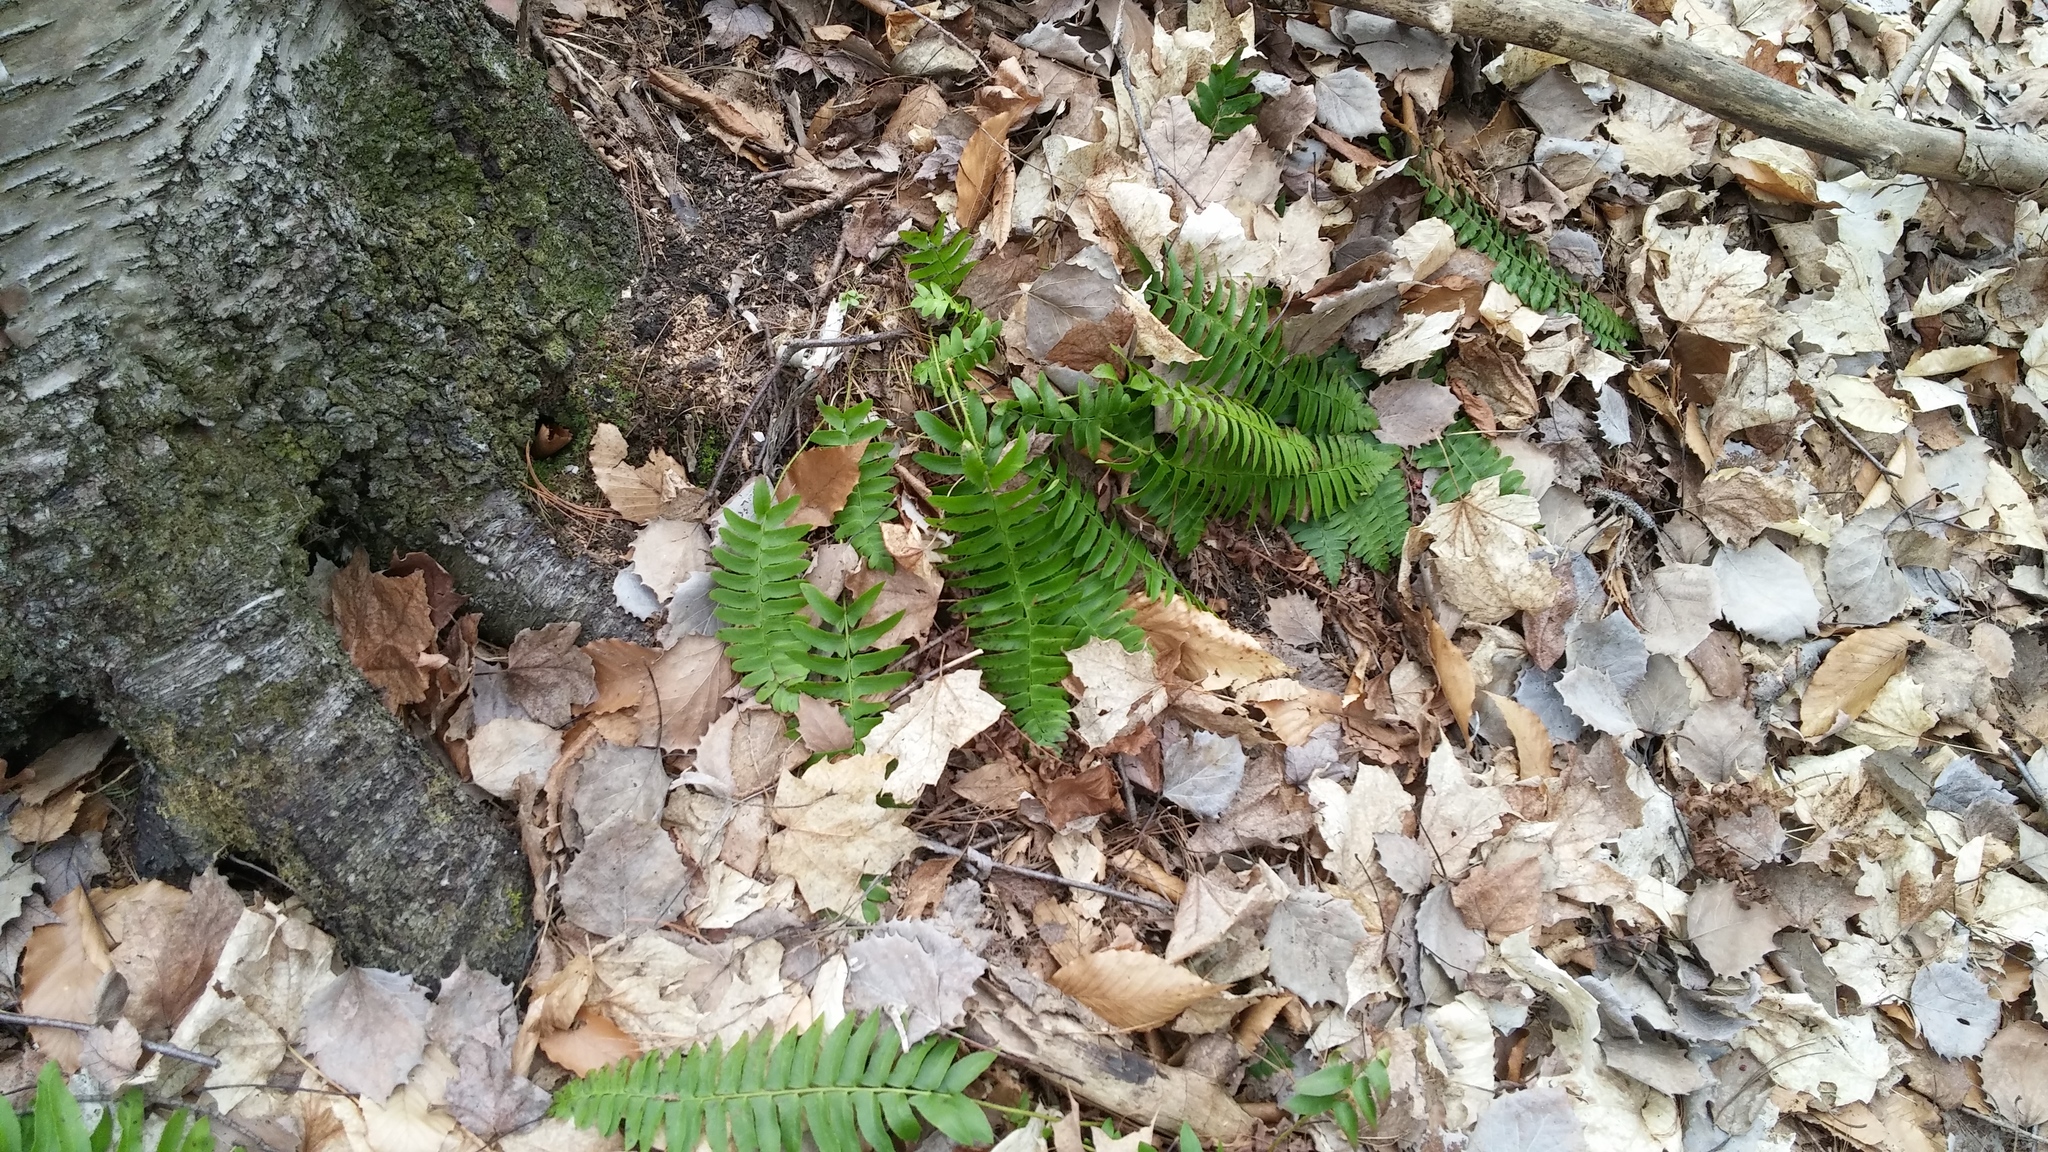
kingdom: Plantae
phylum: Tracheophyta
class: Polypodiopsida
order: Polypodiales
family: Dryopteridaceae
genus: Polystichum
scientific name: Polystichum acrostichoides
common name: Christmas fern
